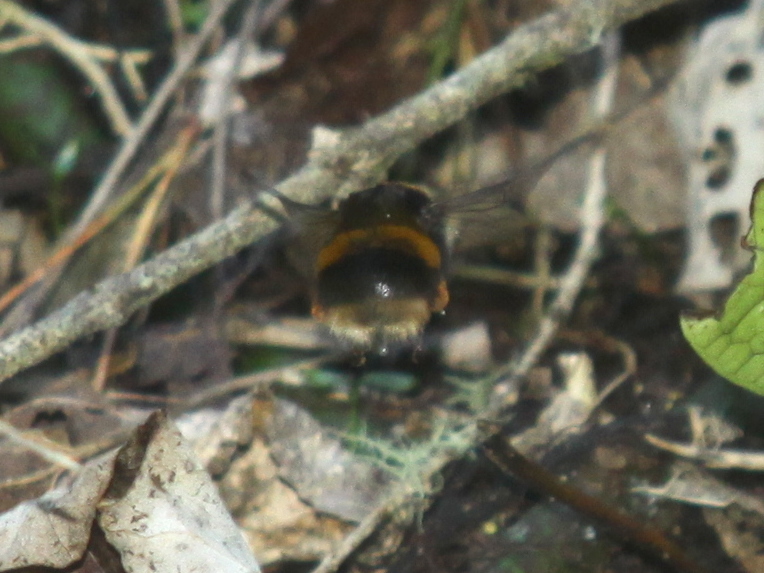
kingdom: Animalia
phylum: Arthropoda
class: Insecta
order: Hymenoptera
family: Apidae
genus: Bombus
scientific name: Bombus terrestris
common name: Buff-tailed bumblebee
